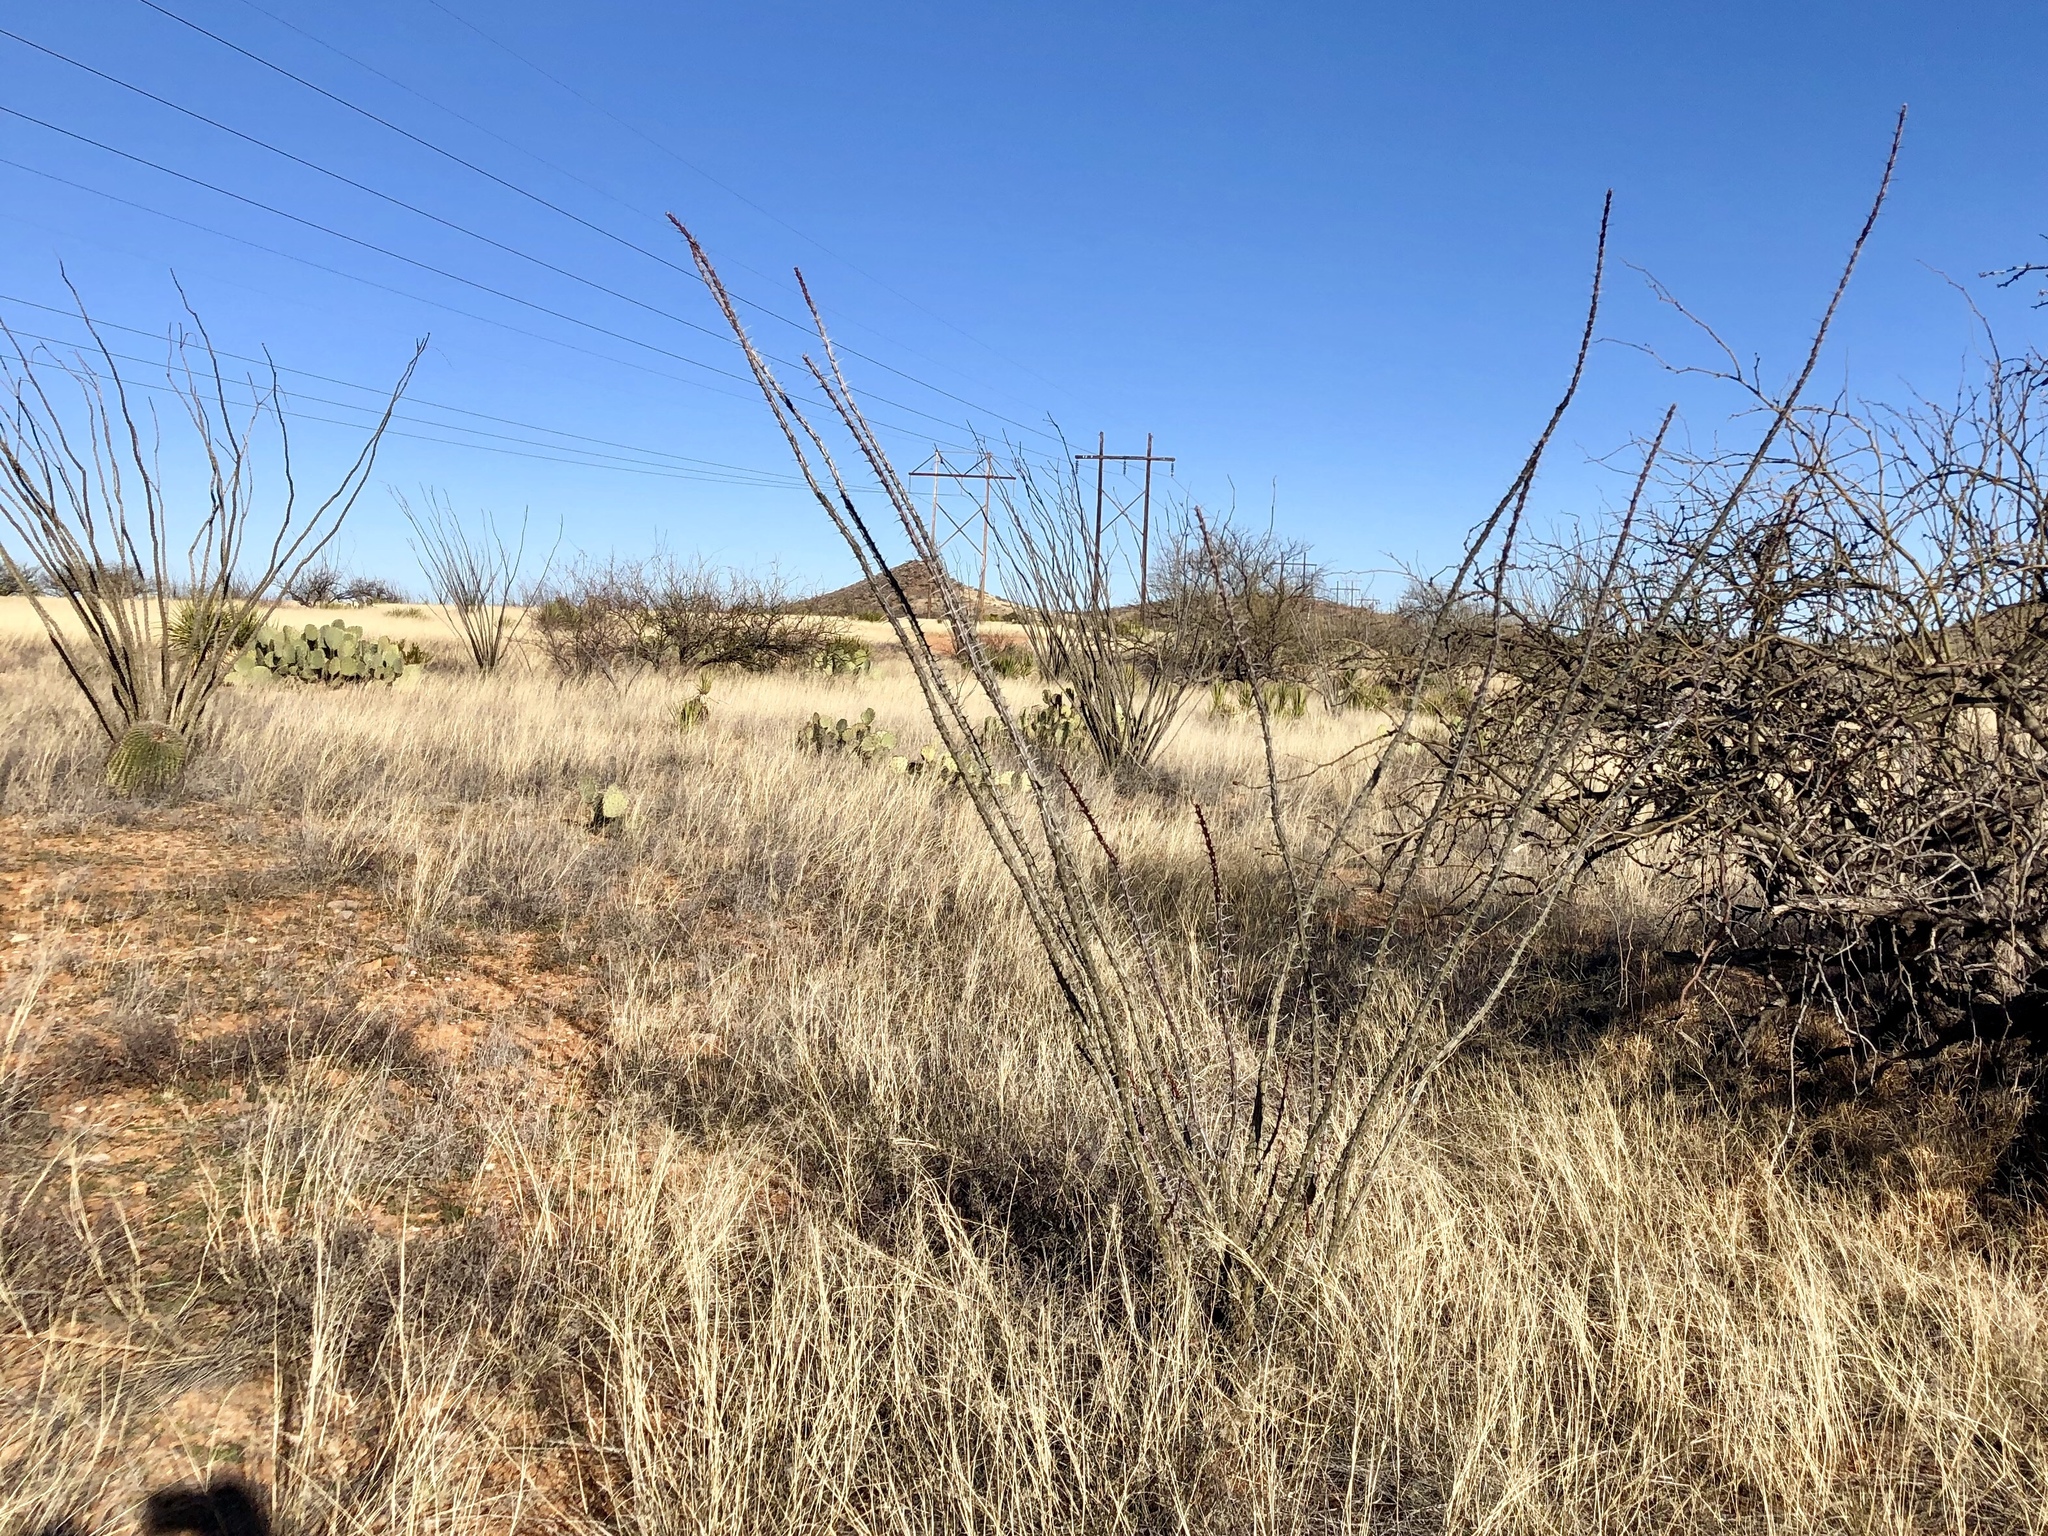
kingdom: Plantae
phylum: Tracheophyta
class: Magnoliopsida
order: Ericales
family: Fouquieriaceae
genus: Fouquieria
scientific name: Fouquieria splendens
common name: Vine-cactus
